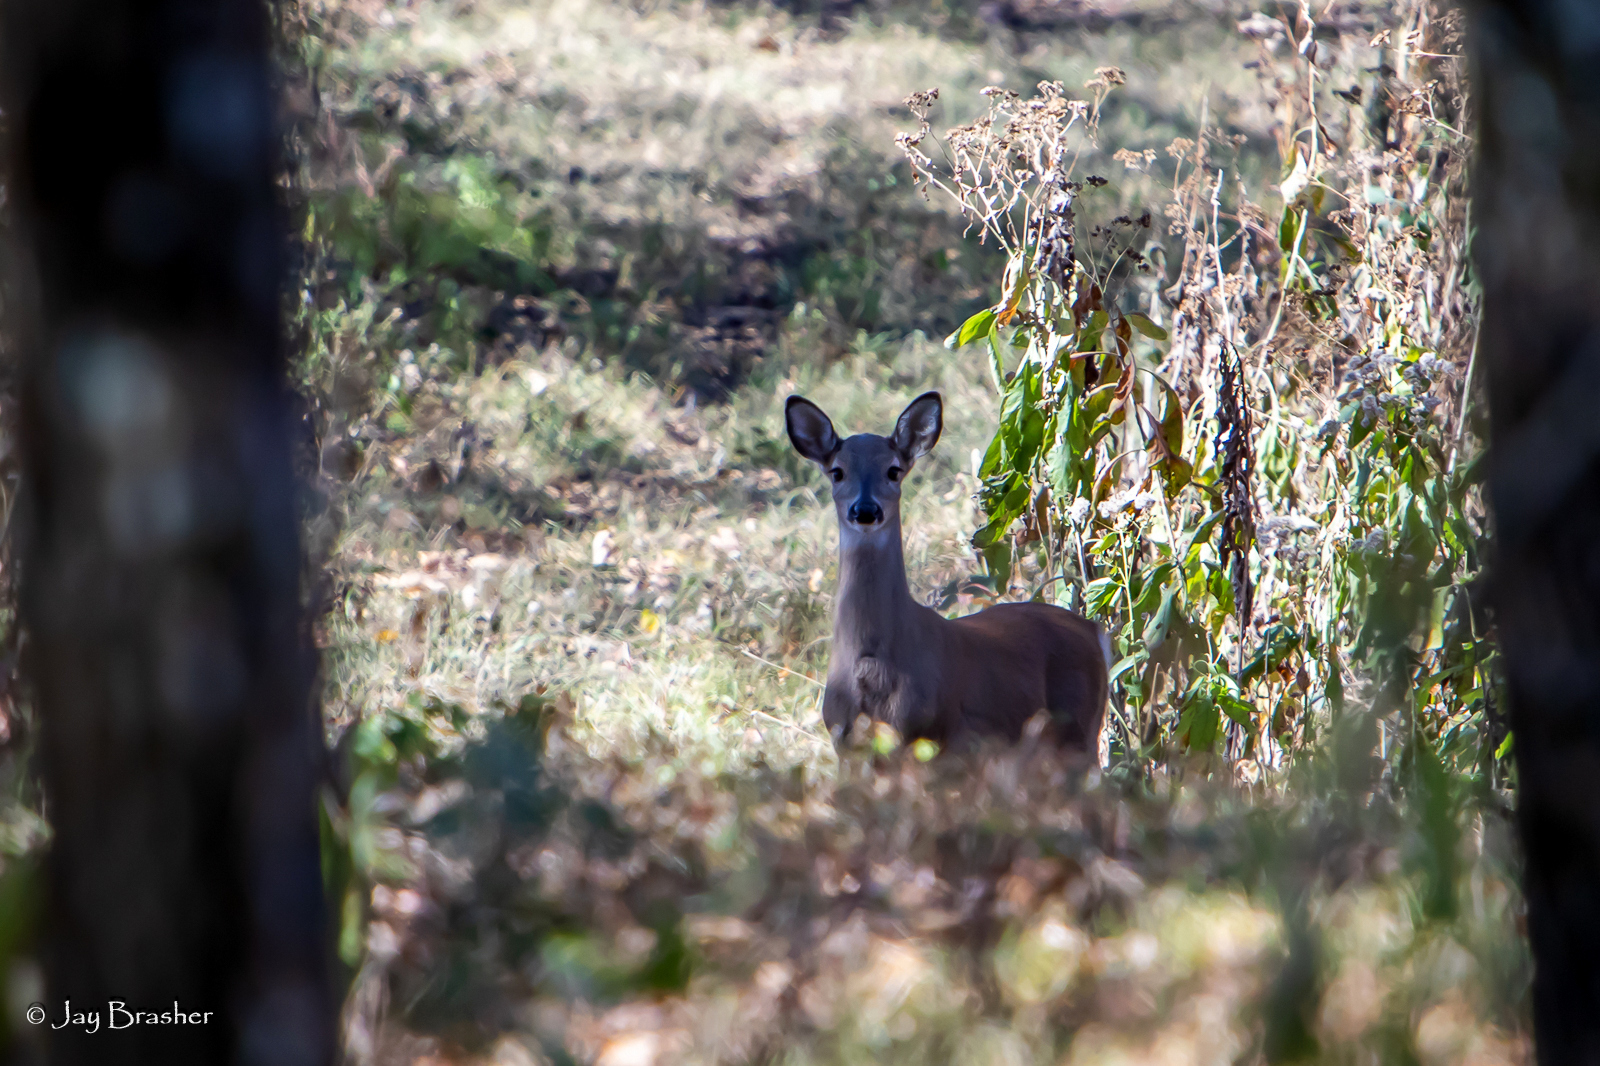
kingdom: Animalia
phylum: Chordata
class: Mammalia
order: Artiodactyla
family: Cervidae
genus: Odocoileus
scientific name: Odocoileus virginianus
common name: White-tailed deer
